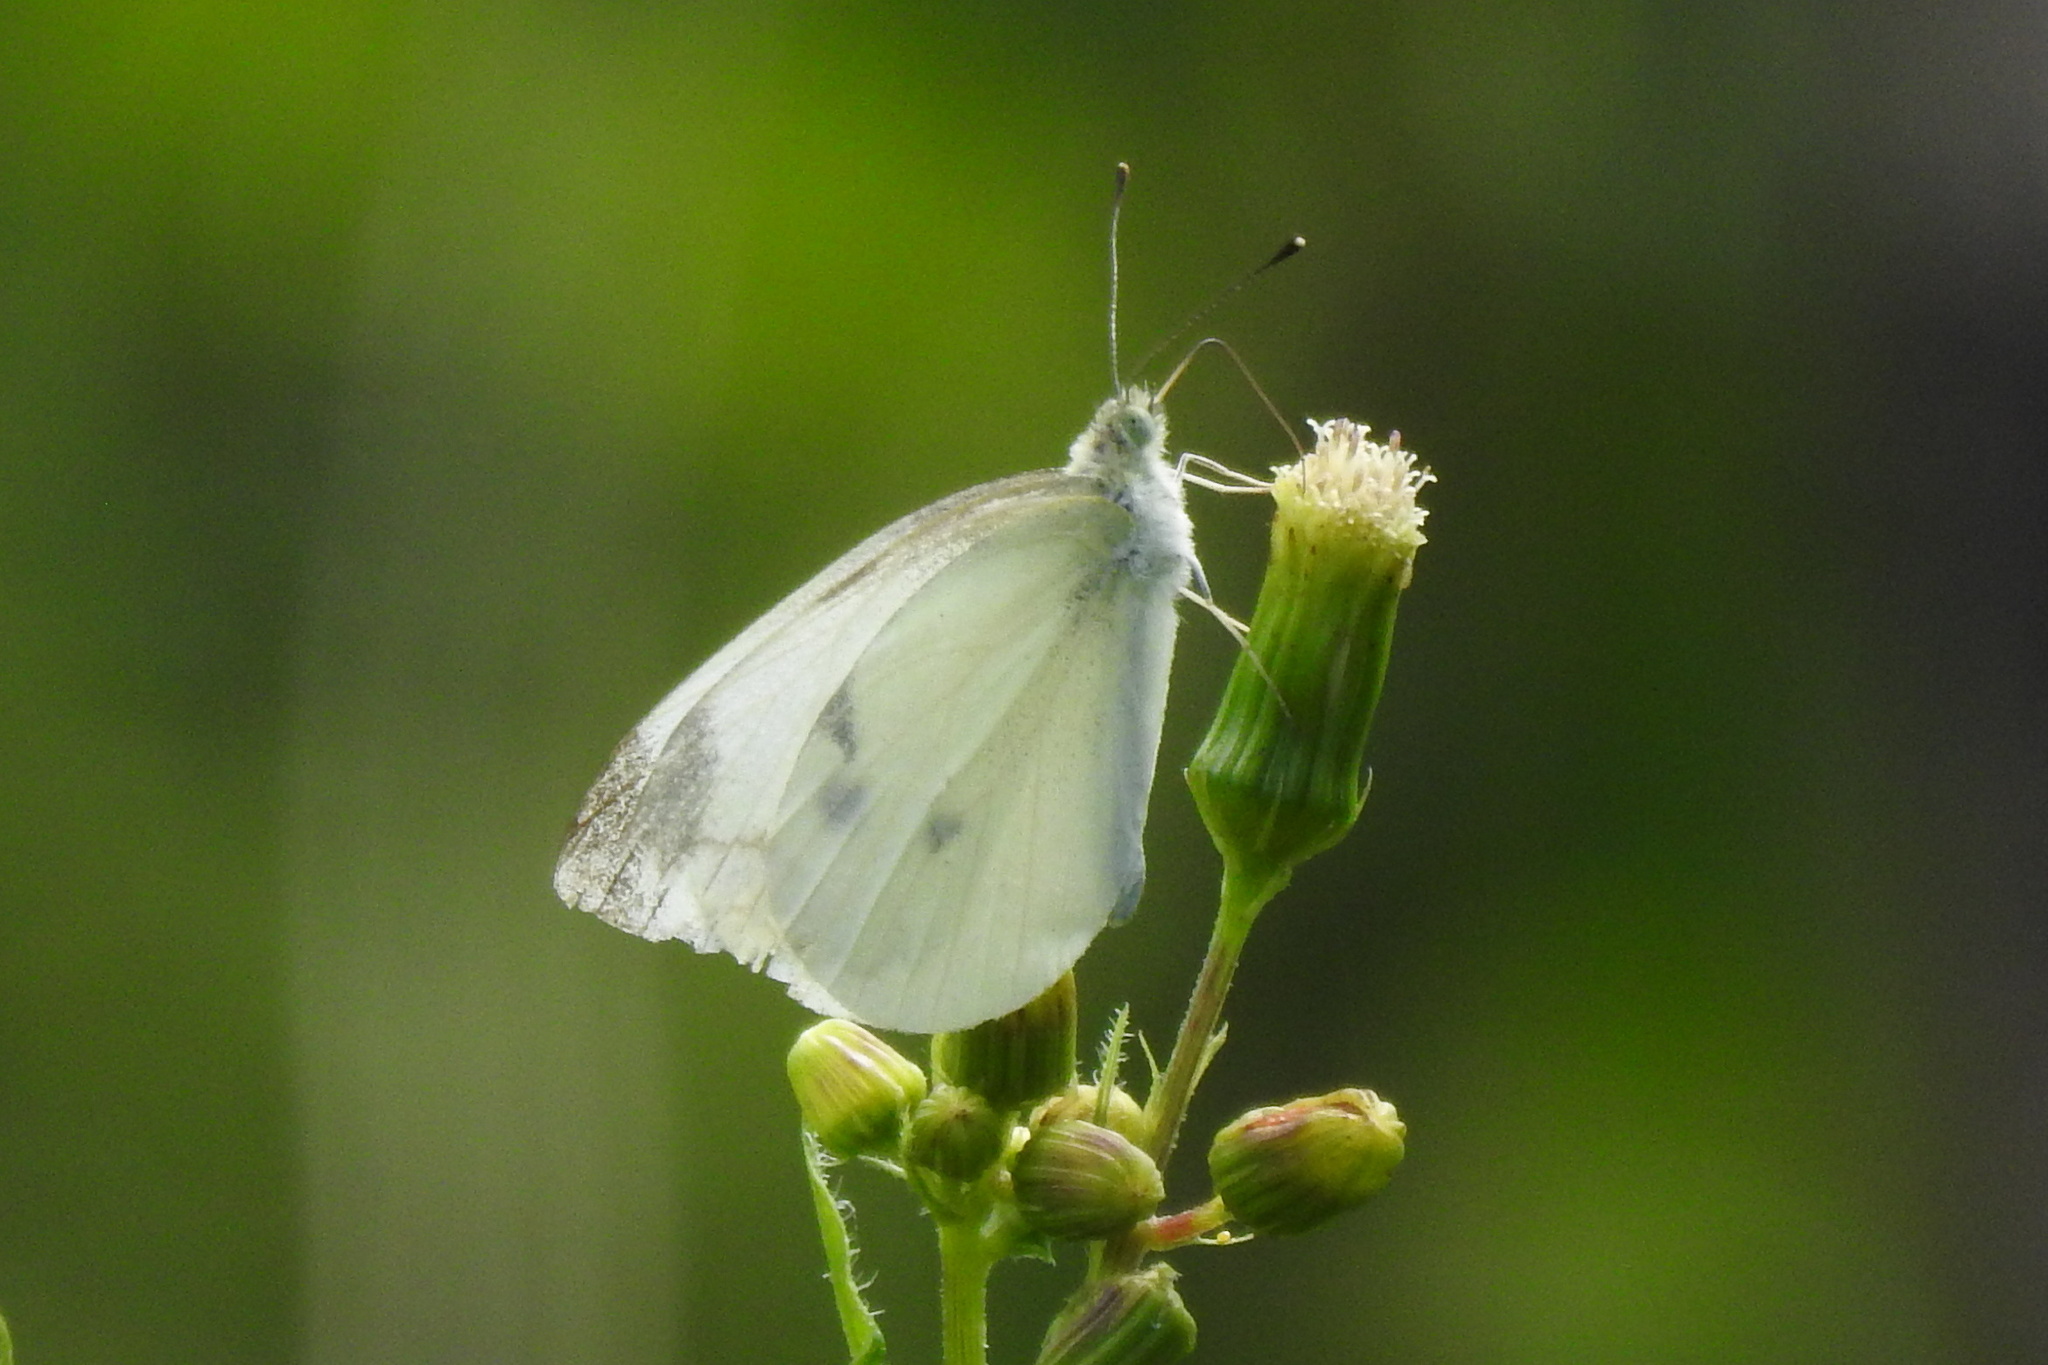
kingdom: Animalia
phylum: Arthropoda
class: Insecta
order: Lepidoptera
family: Pieridae
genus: Pieris
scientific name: Pieris rapae
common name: Small white
